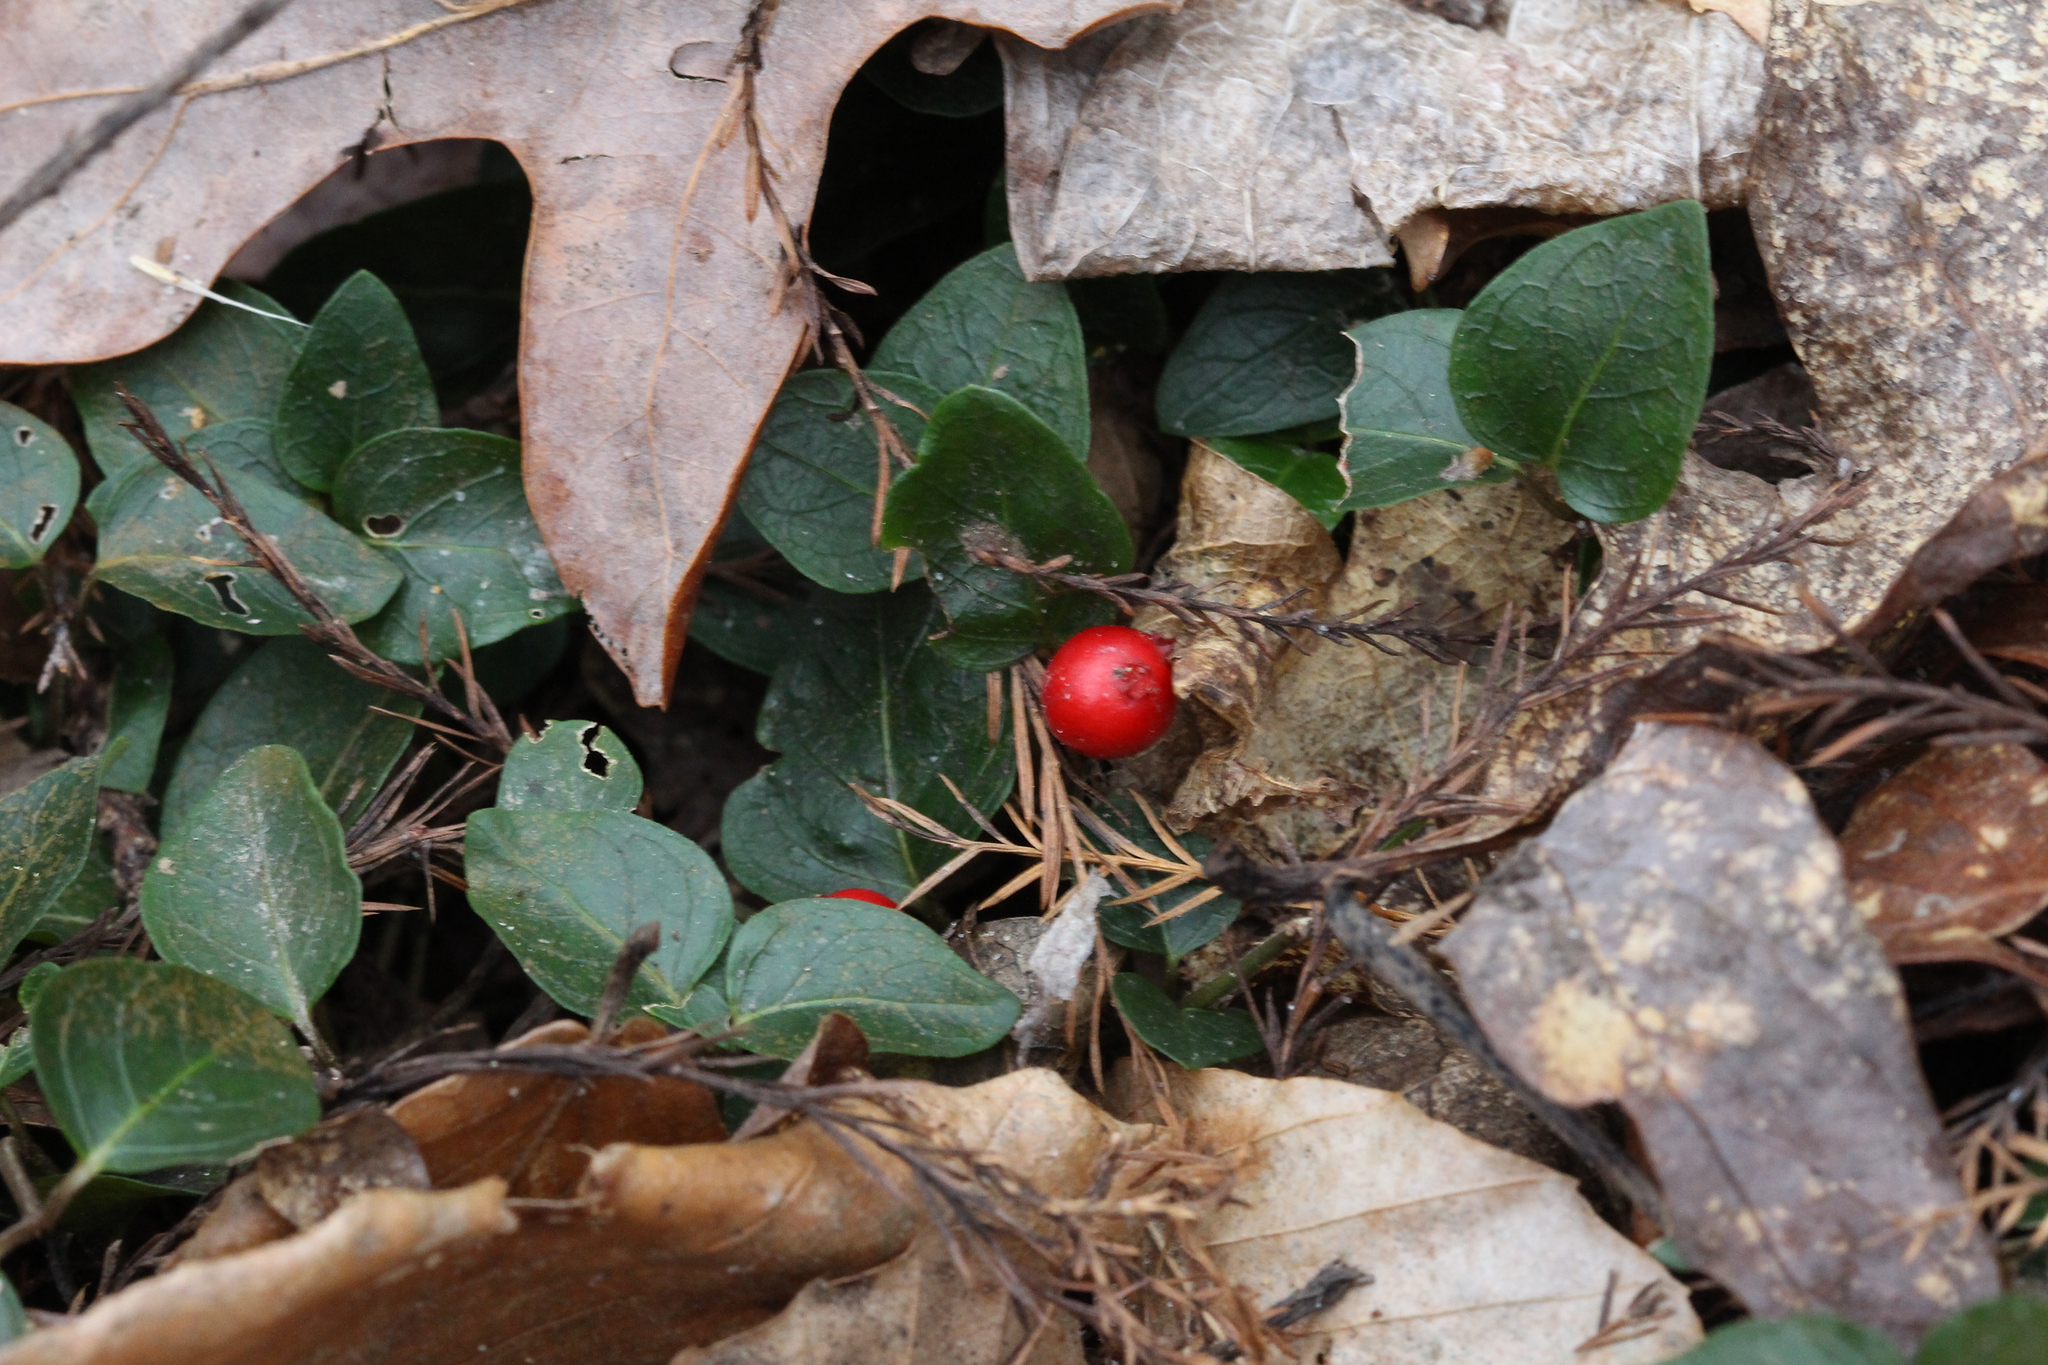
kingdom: Plantae
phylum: Tracheophyta
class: Magnoliopsida
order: Gentianales
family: Rubiaceae
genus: Mitchella
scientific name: Mitchella repens
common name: Partridge-berry
